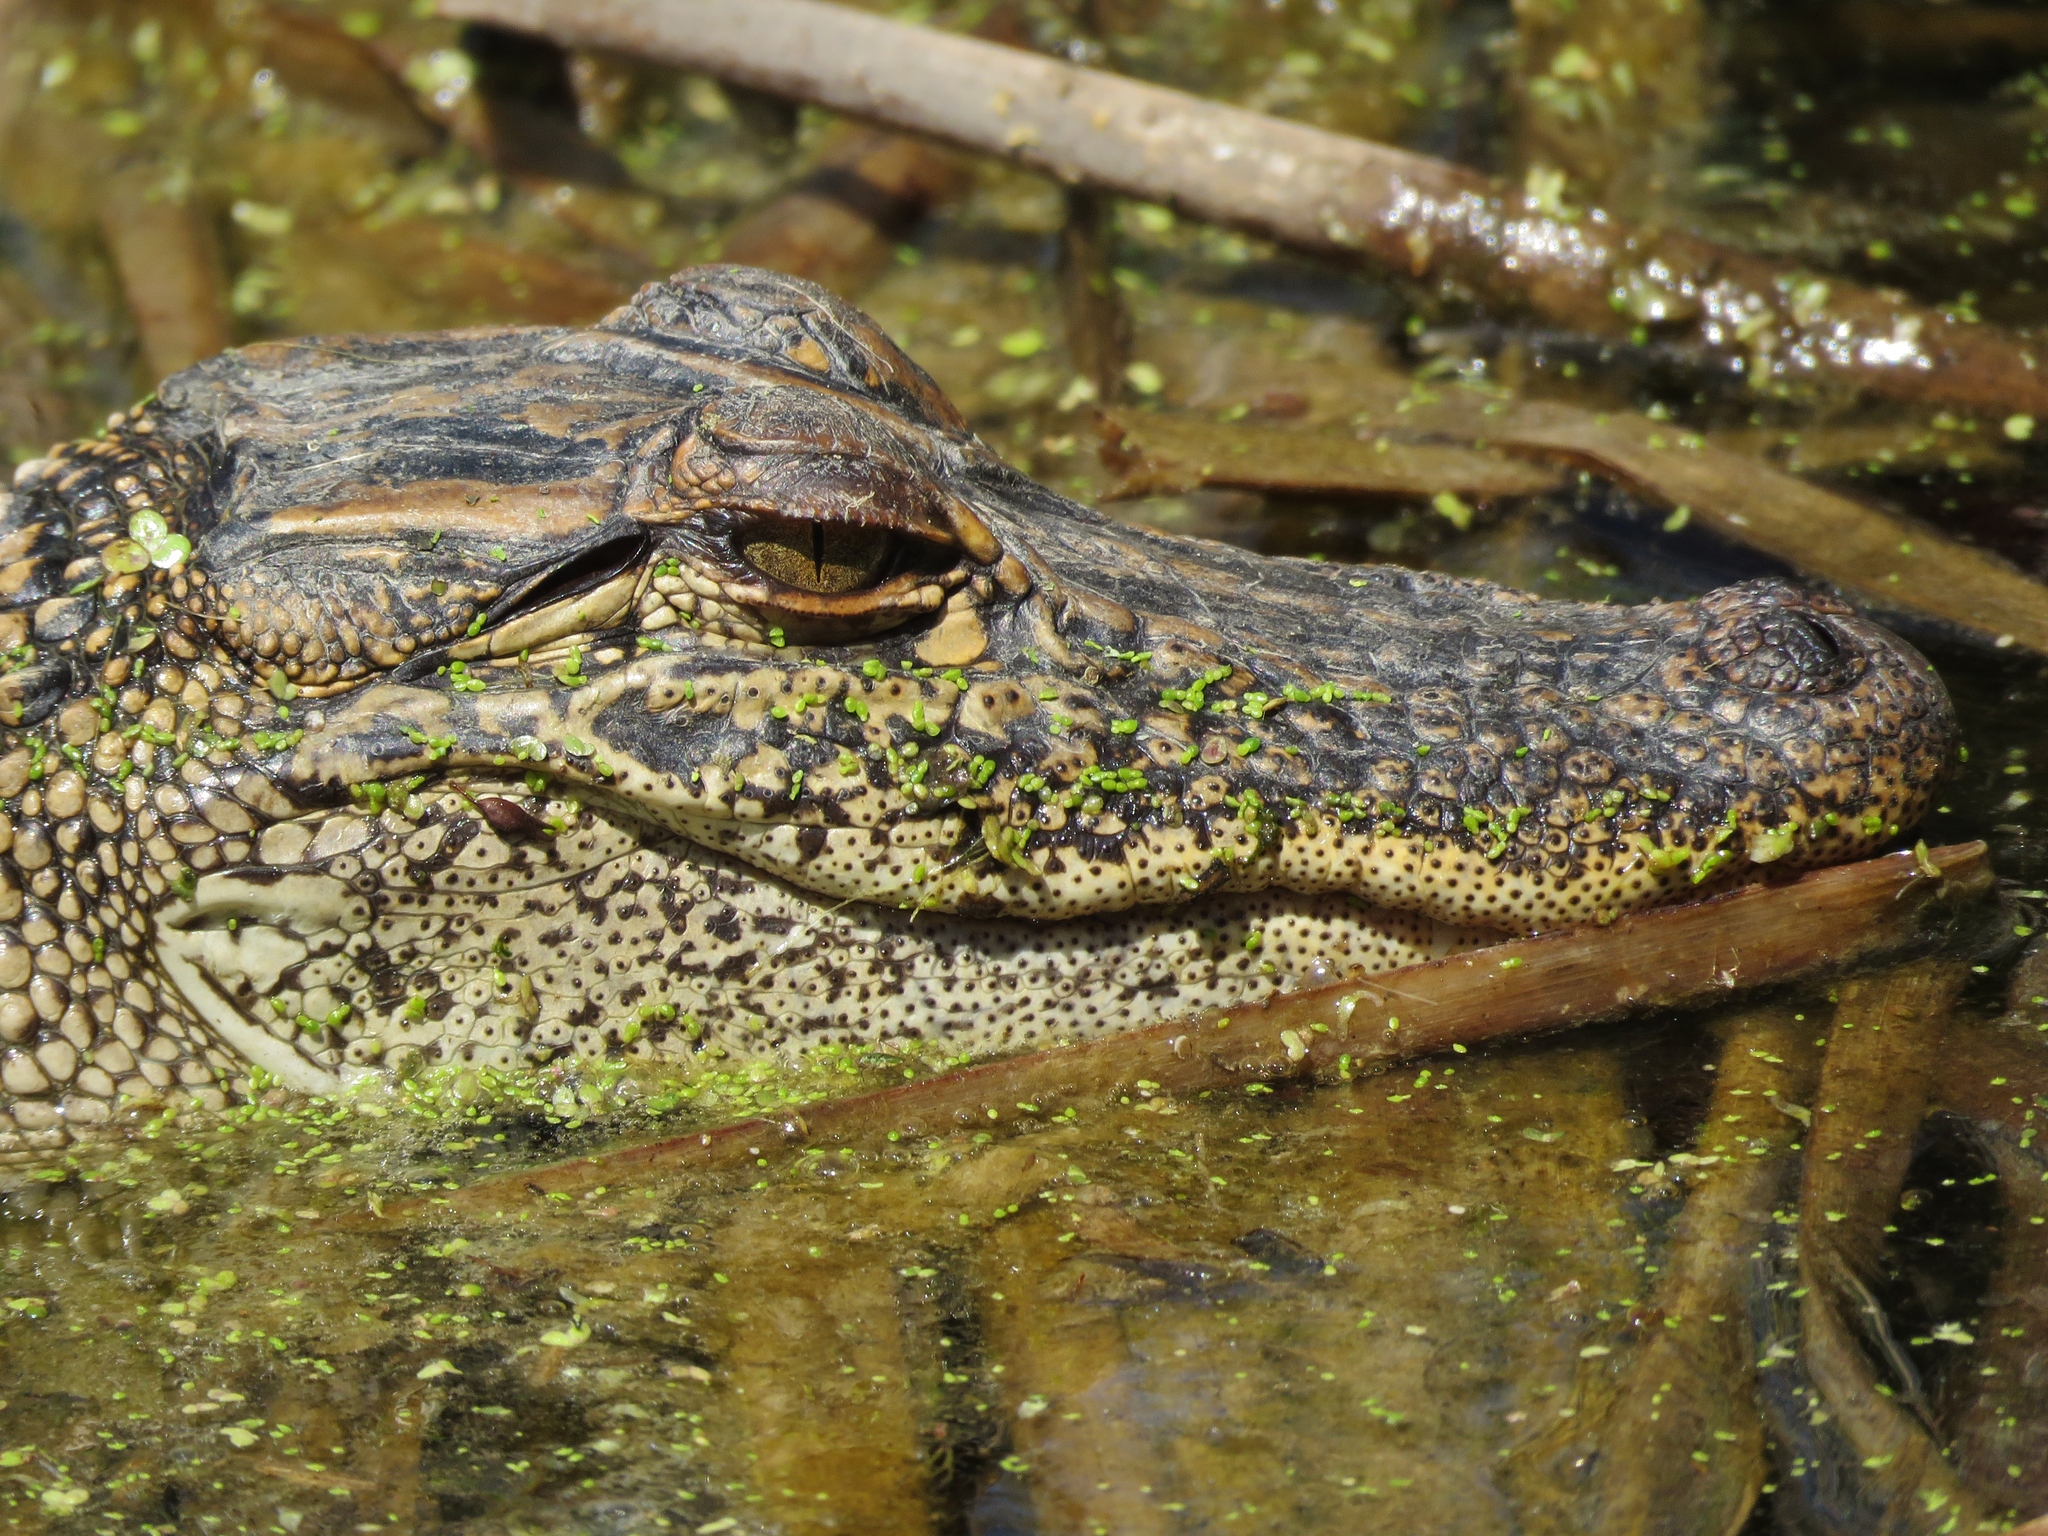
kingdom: Animalia
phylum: Chordata
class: Crocodylia
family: Alligatoridae
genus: Alligator
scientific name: Alligator mississippiensis
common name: American alligator
